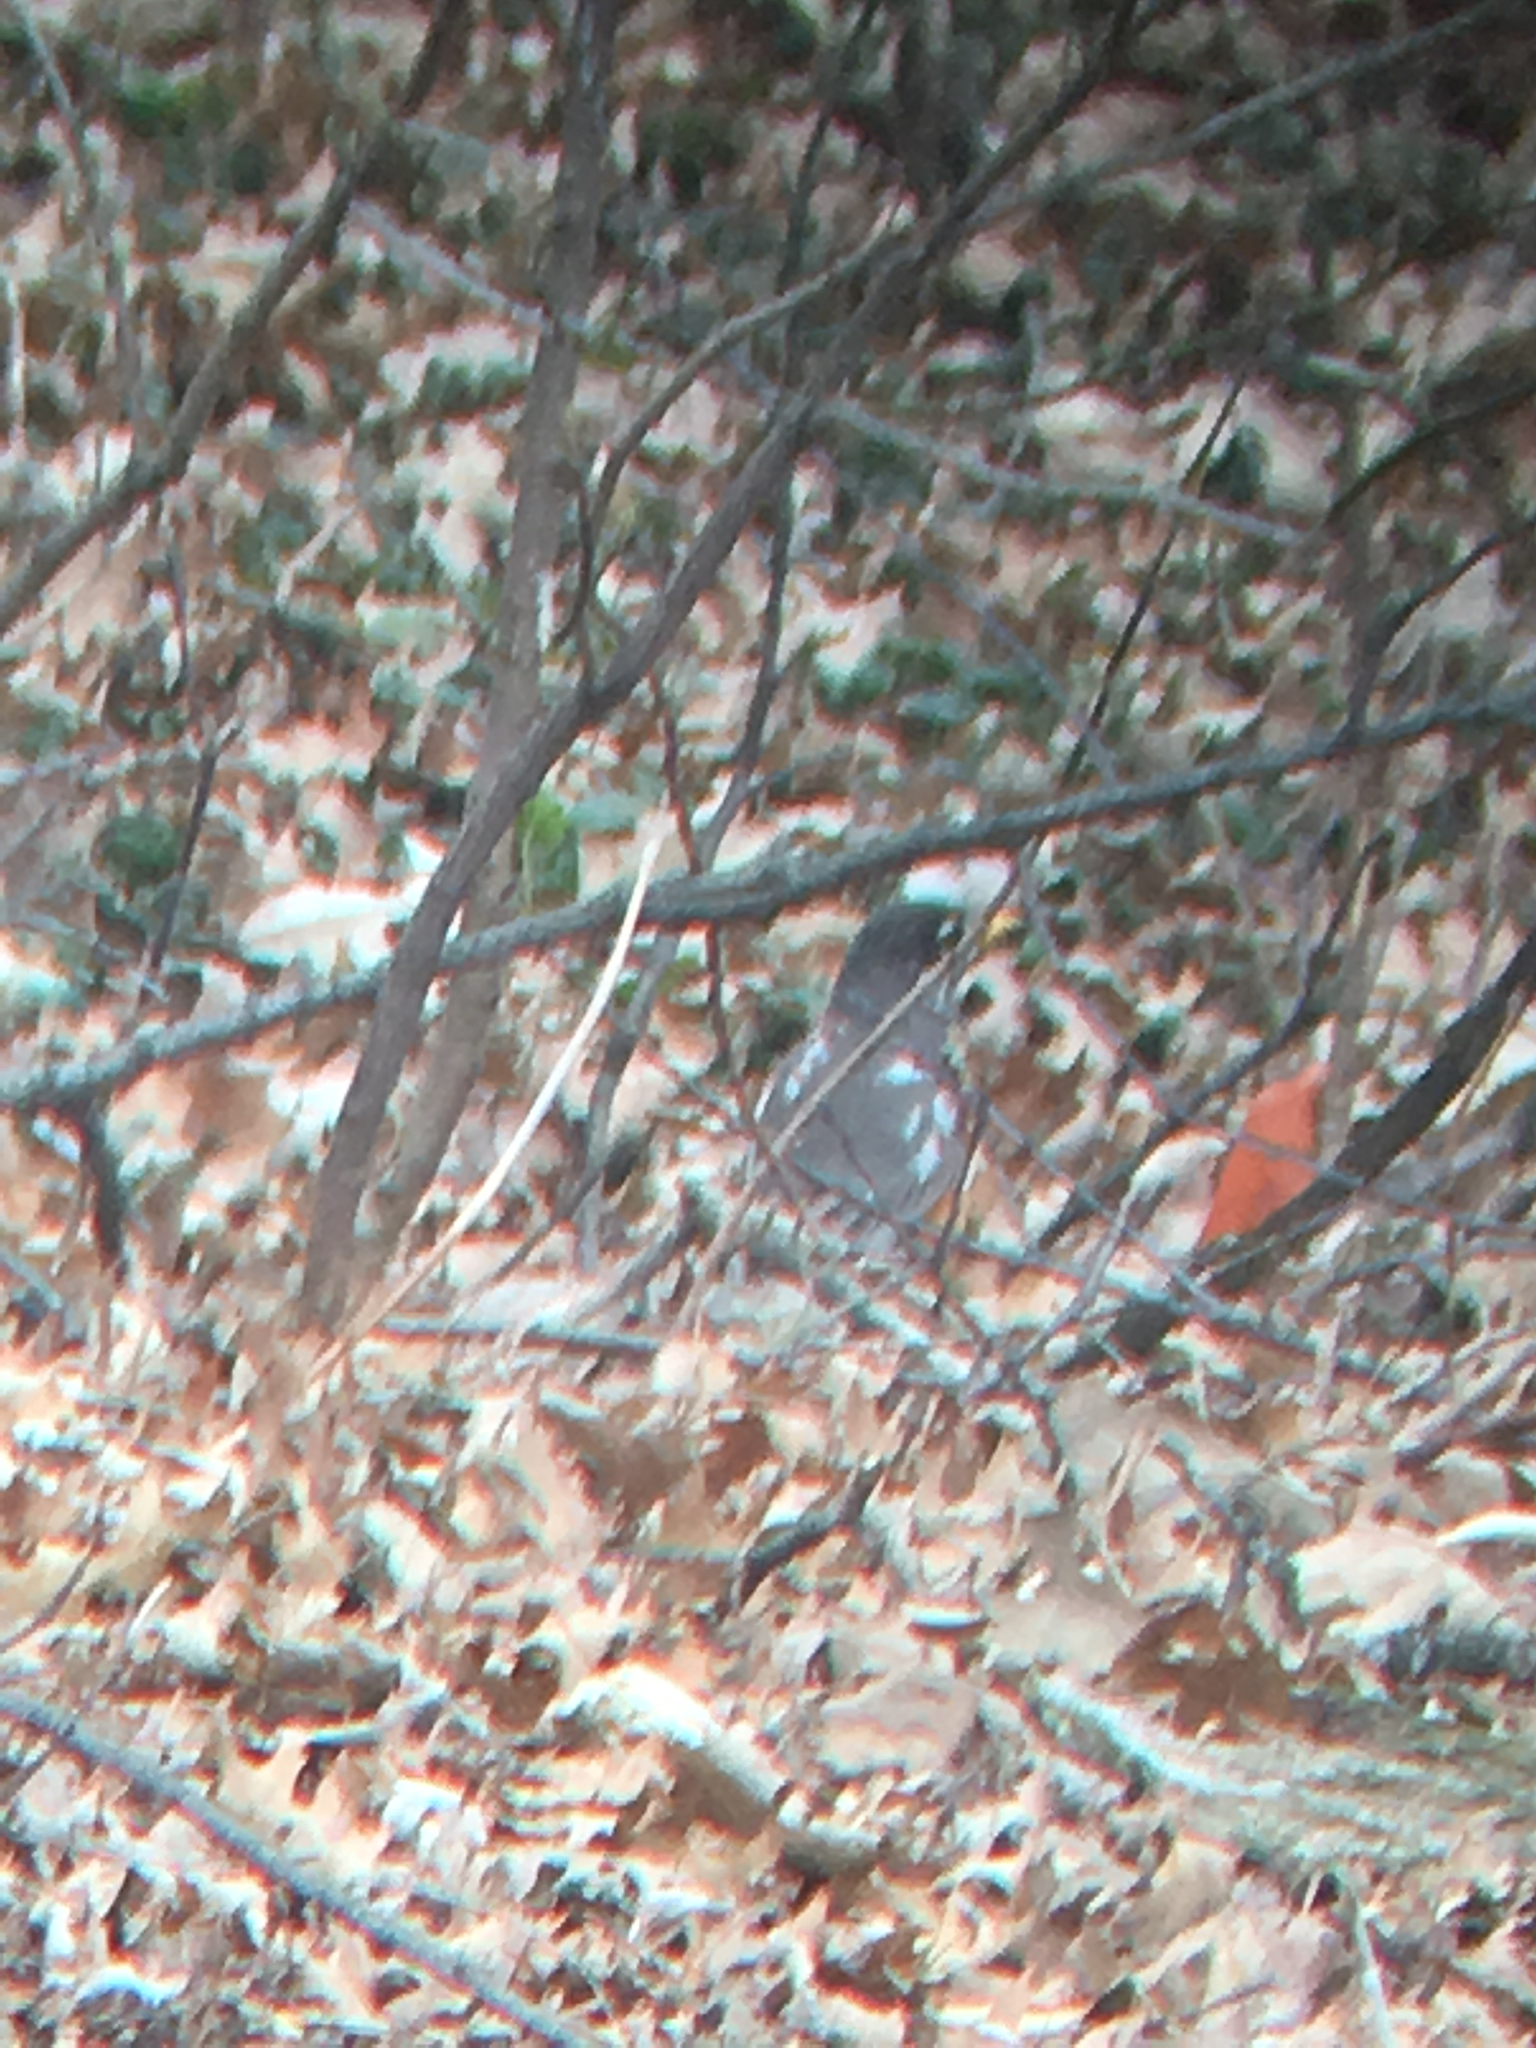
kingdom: Animalia
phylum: Chordata
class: Aves
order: Passeriformes
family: Turdidae
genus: Turdus
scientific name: Turdus migratorius
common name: American robin
